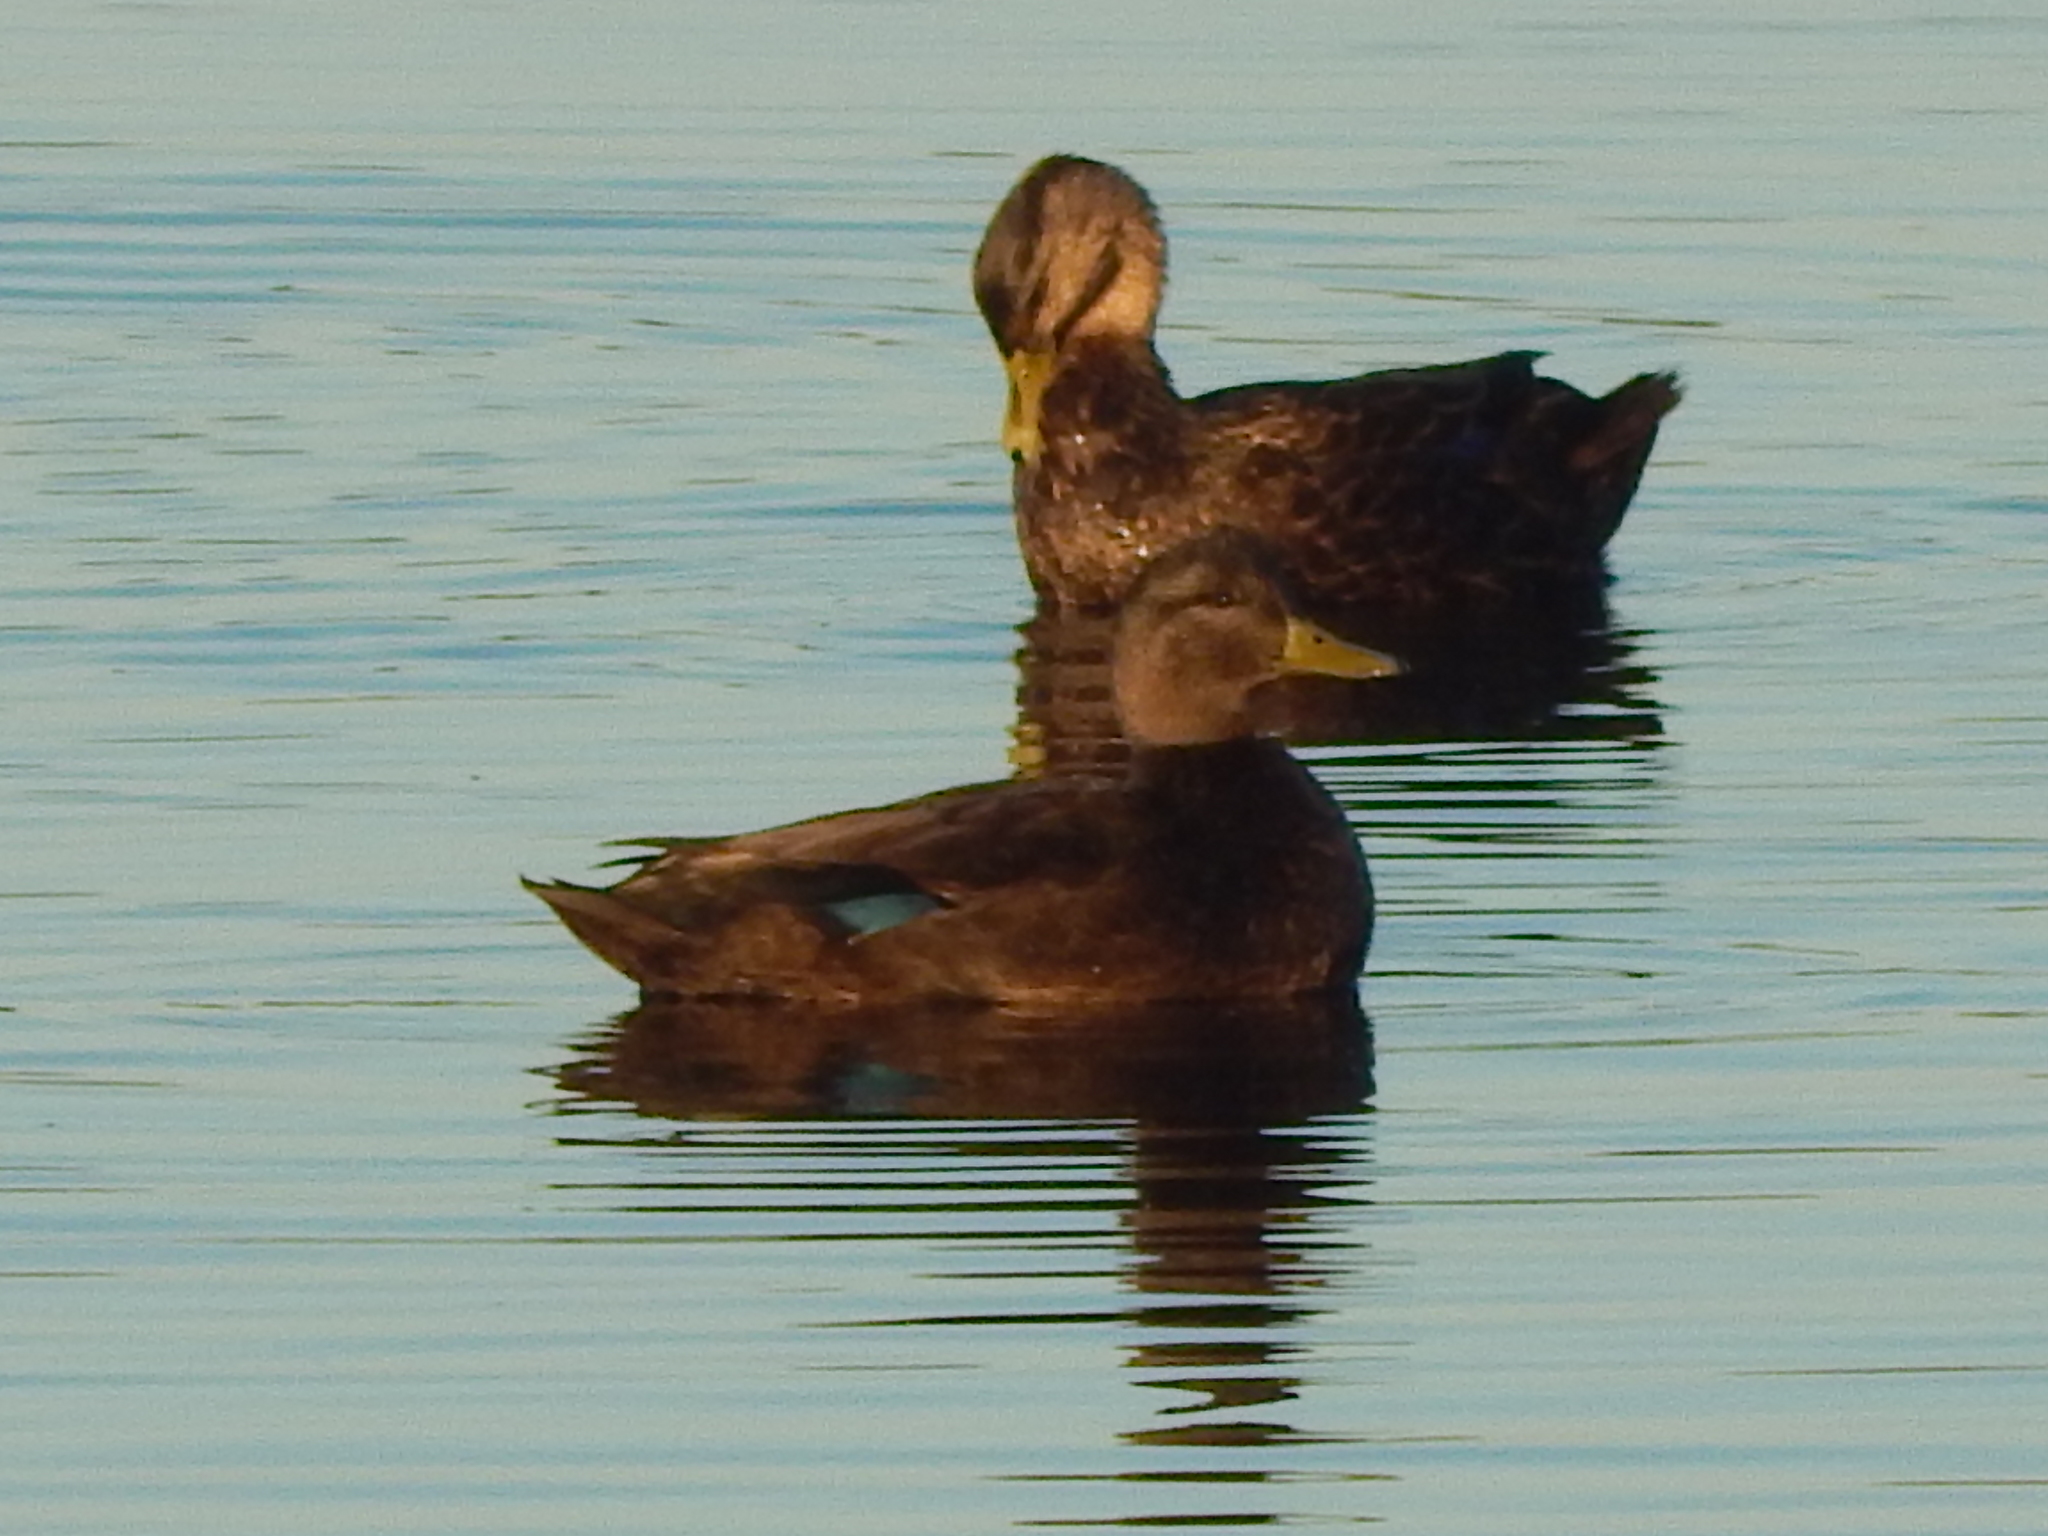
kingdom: Animalia
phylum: Chordata
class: Aves
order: Anseriformes
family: Anatidae
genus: Anas
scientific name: Anas rubripes
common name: American black duck
